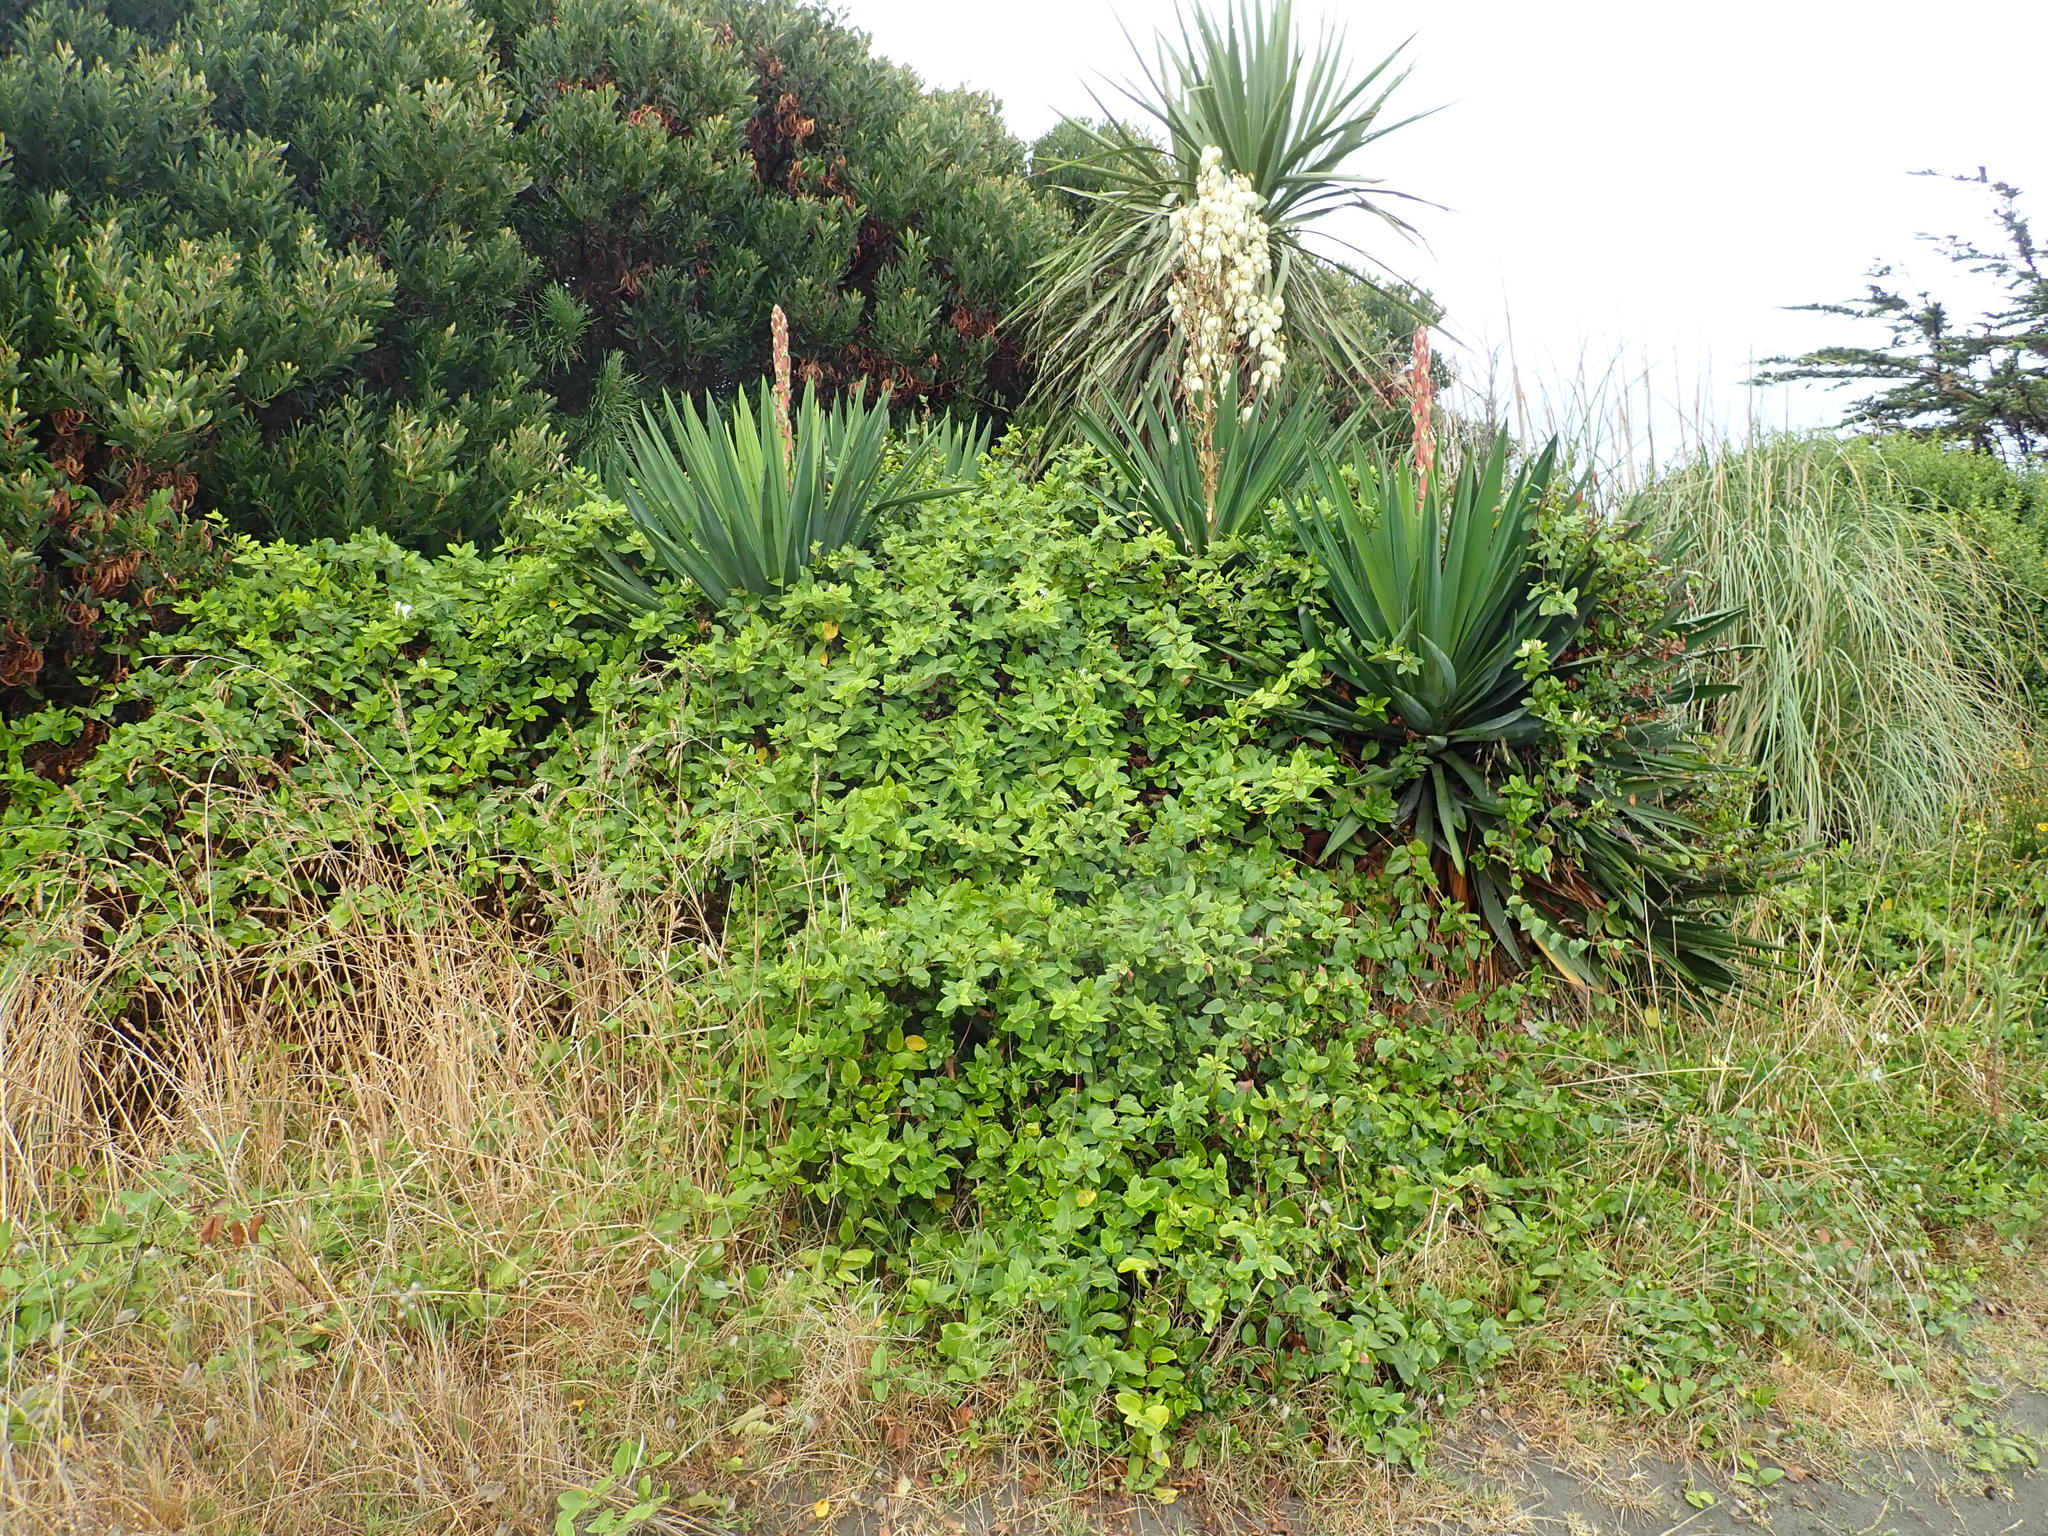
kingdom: Plantae
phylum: Tracheophyta
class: Liliopsida
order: Asparagales
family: Asparagaceae
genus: Yucca
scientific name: Yucca gloriosa
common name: Spanish-dagger
